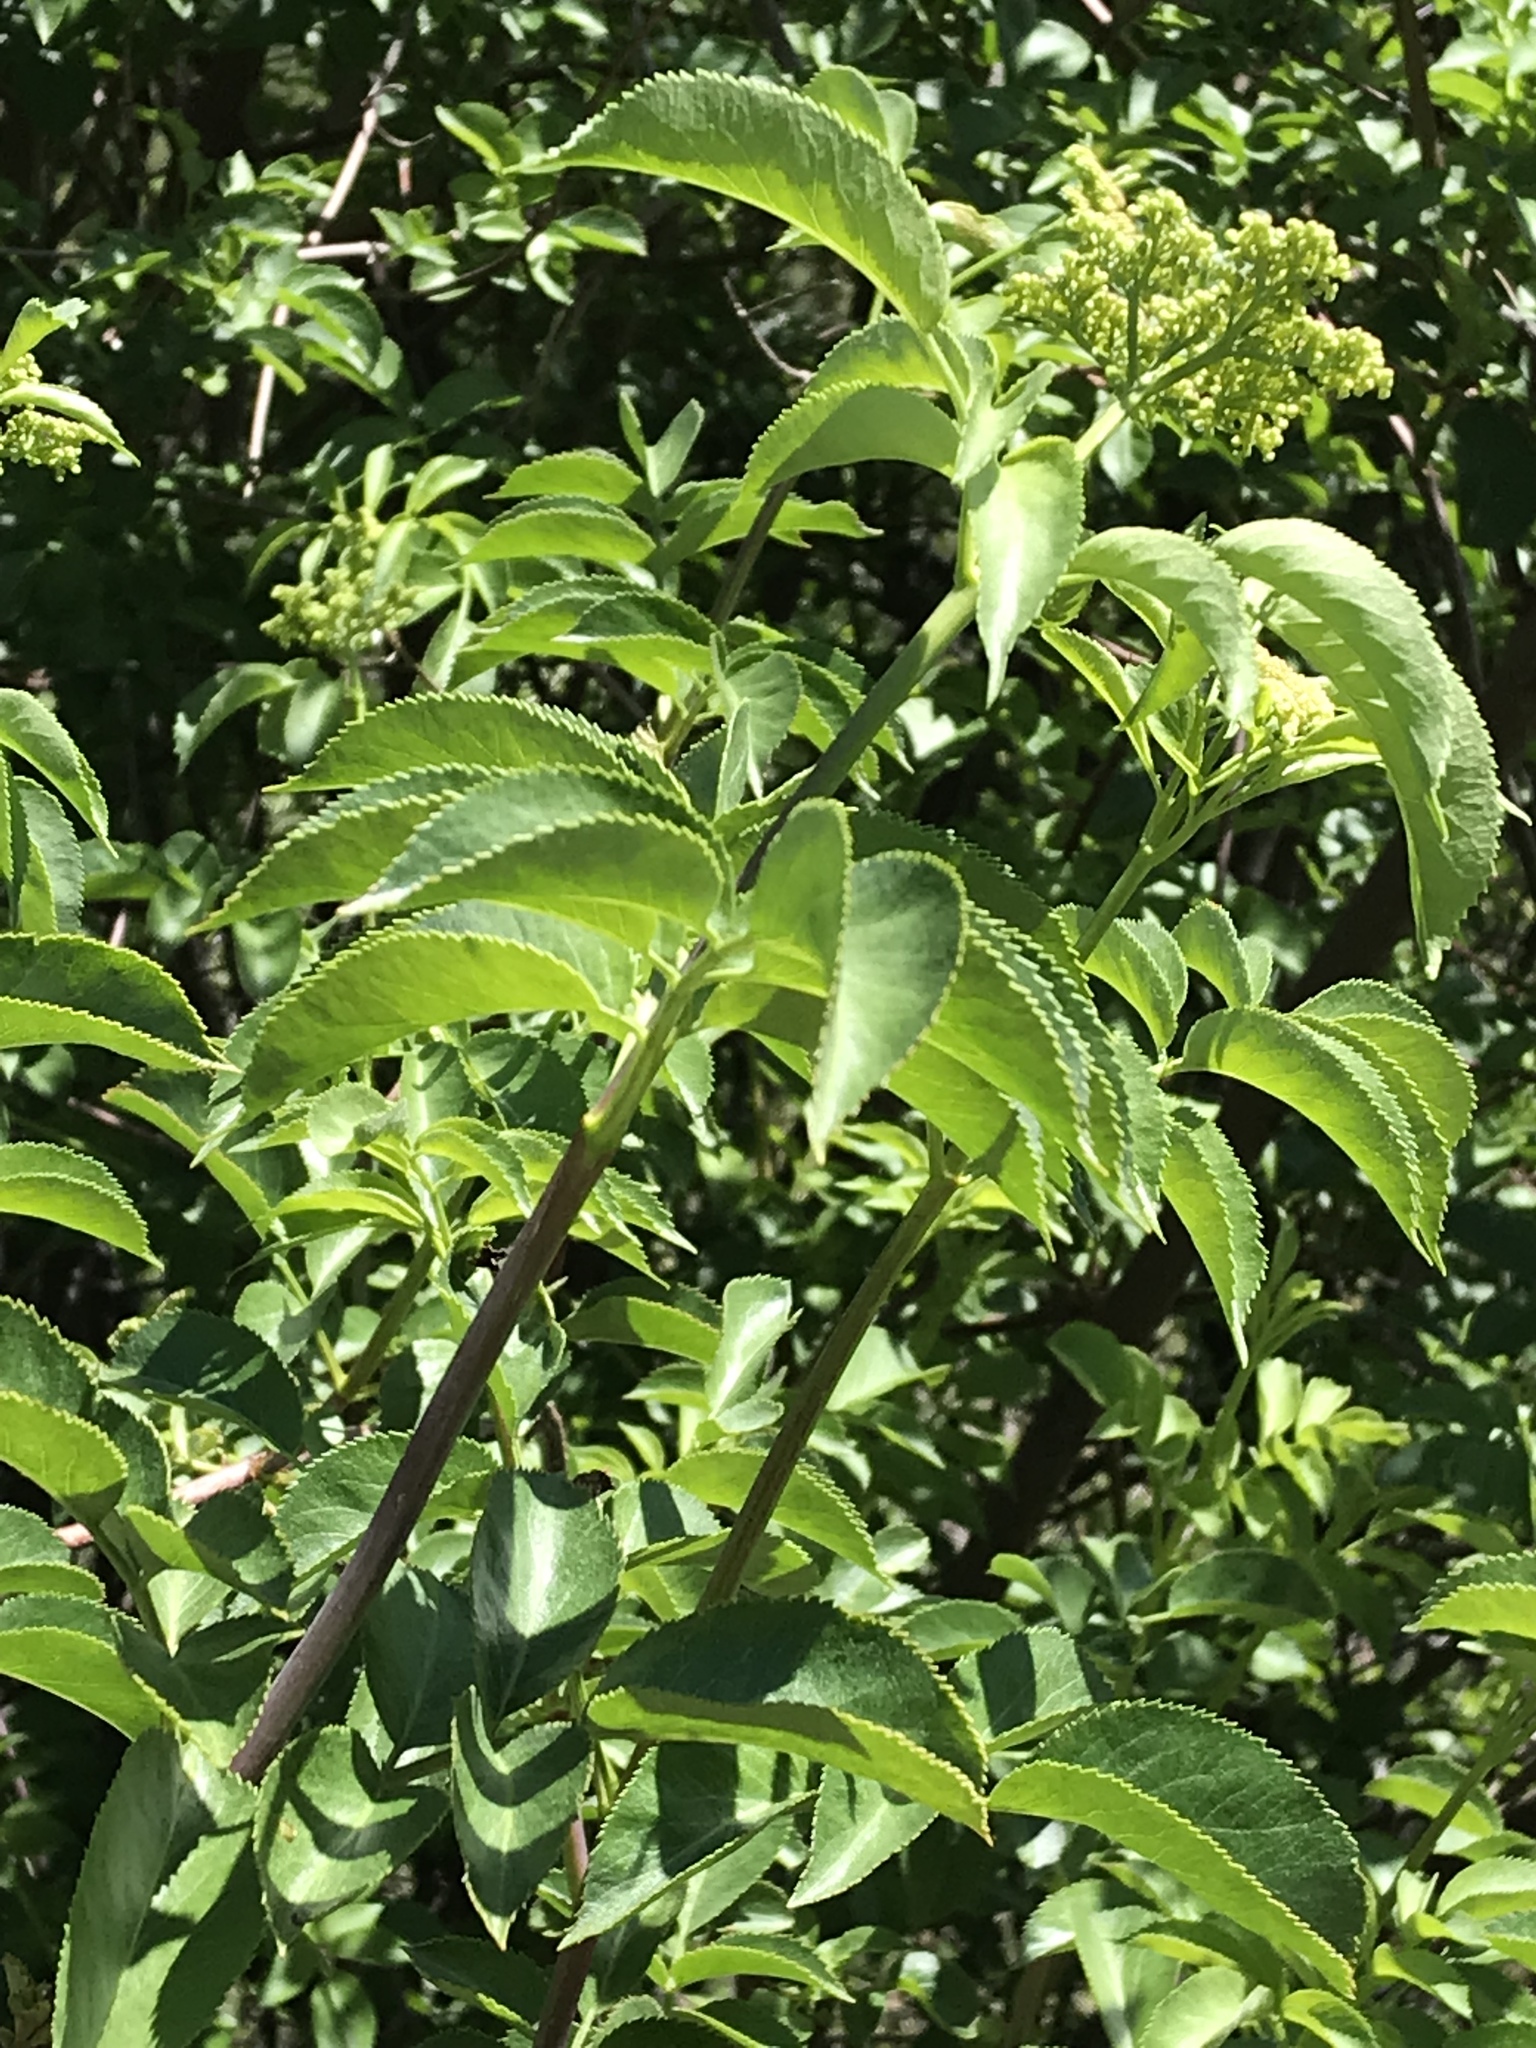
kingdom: Plantae
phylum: Tracheophyta
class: Magnoliopsida
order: Dipsacales
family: Viburnaceae
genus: Sambucus
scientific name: Sambucus cerulea
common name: Blue elder
